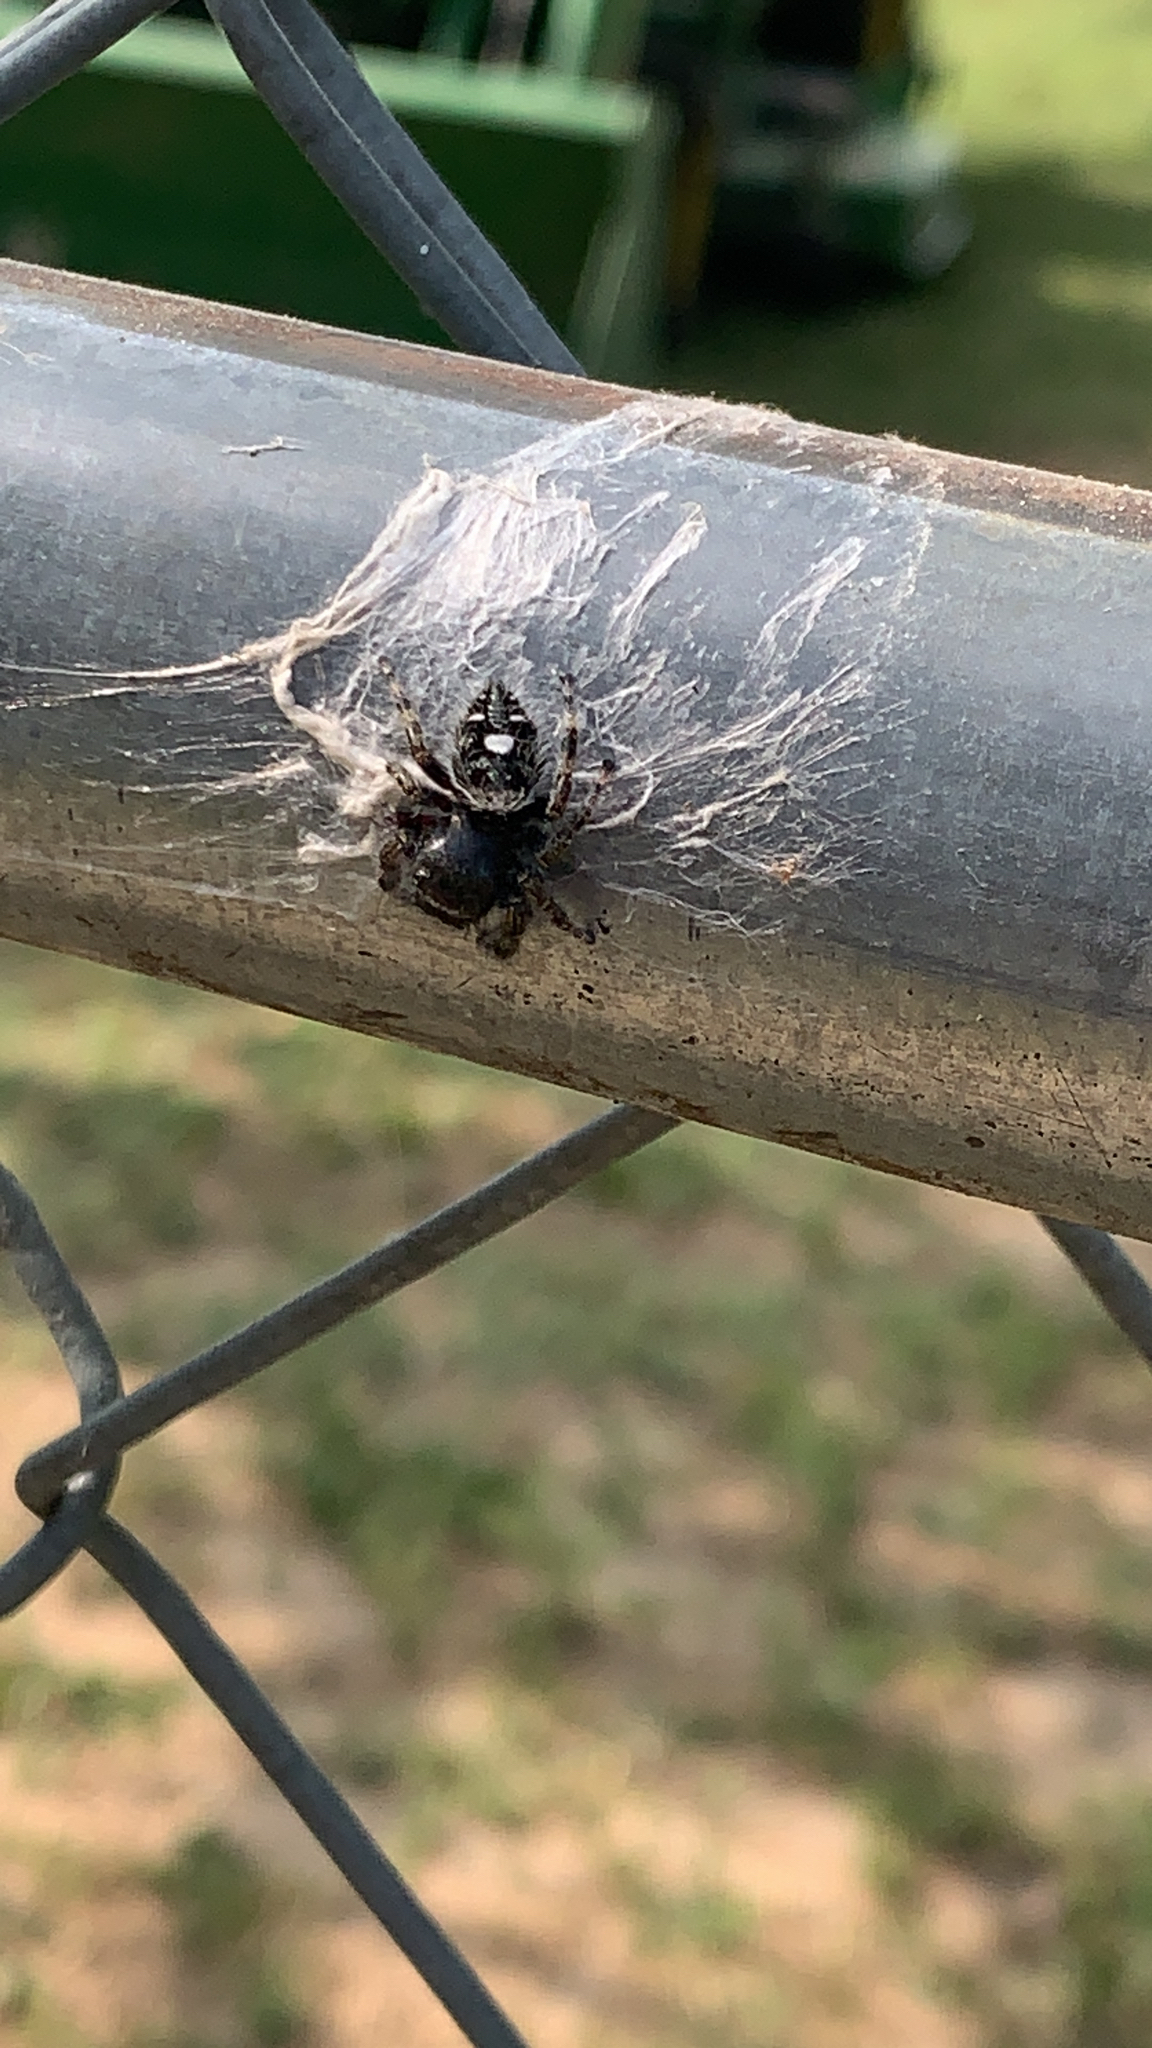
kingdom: Animalia
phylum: Arthropoda
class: Arachnida
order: Araneae
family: Salticidae
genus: Phidippus
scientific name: Phidippus audax
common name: Bold jumper
